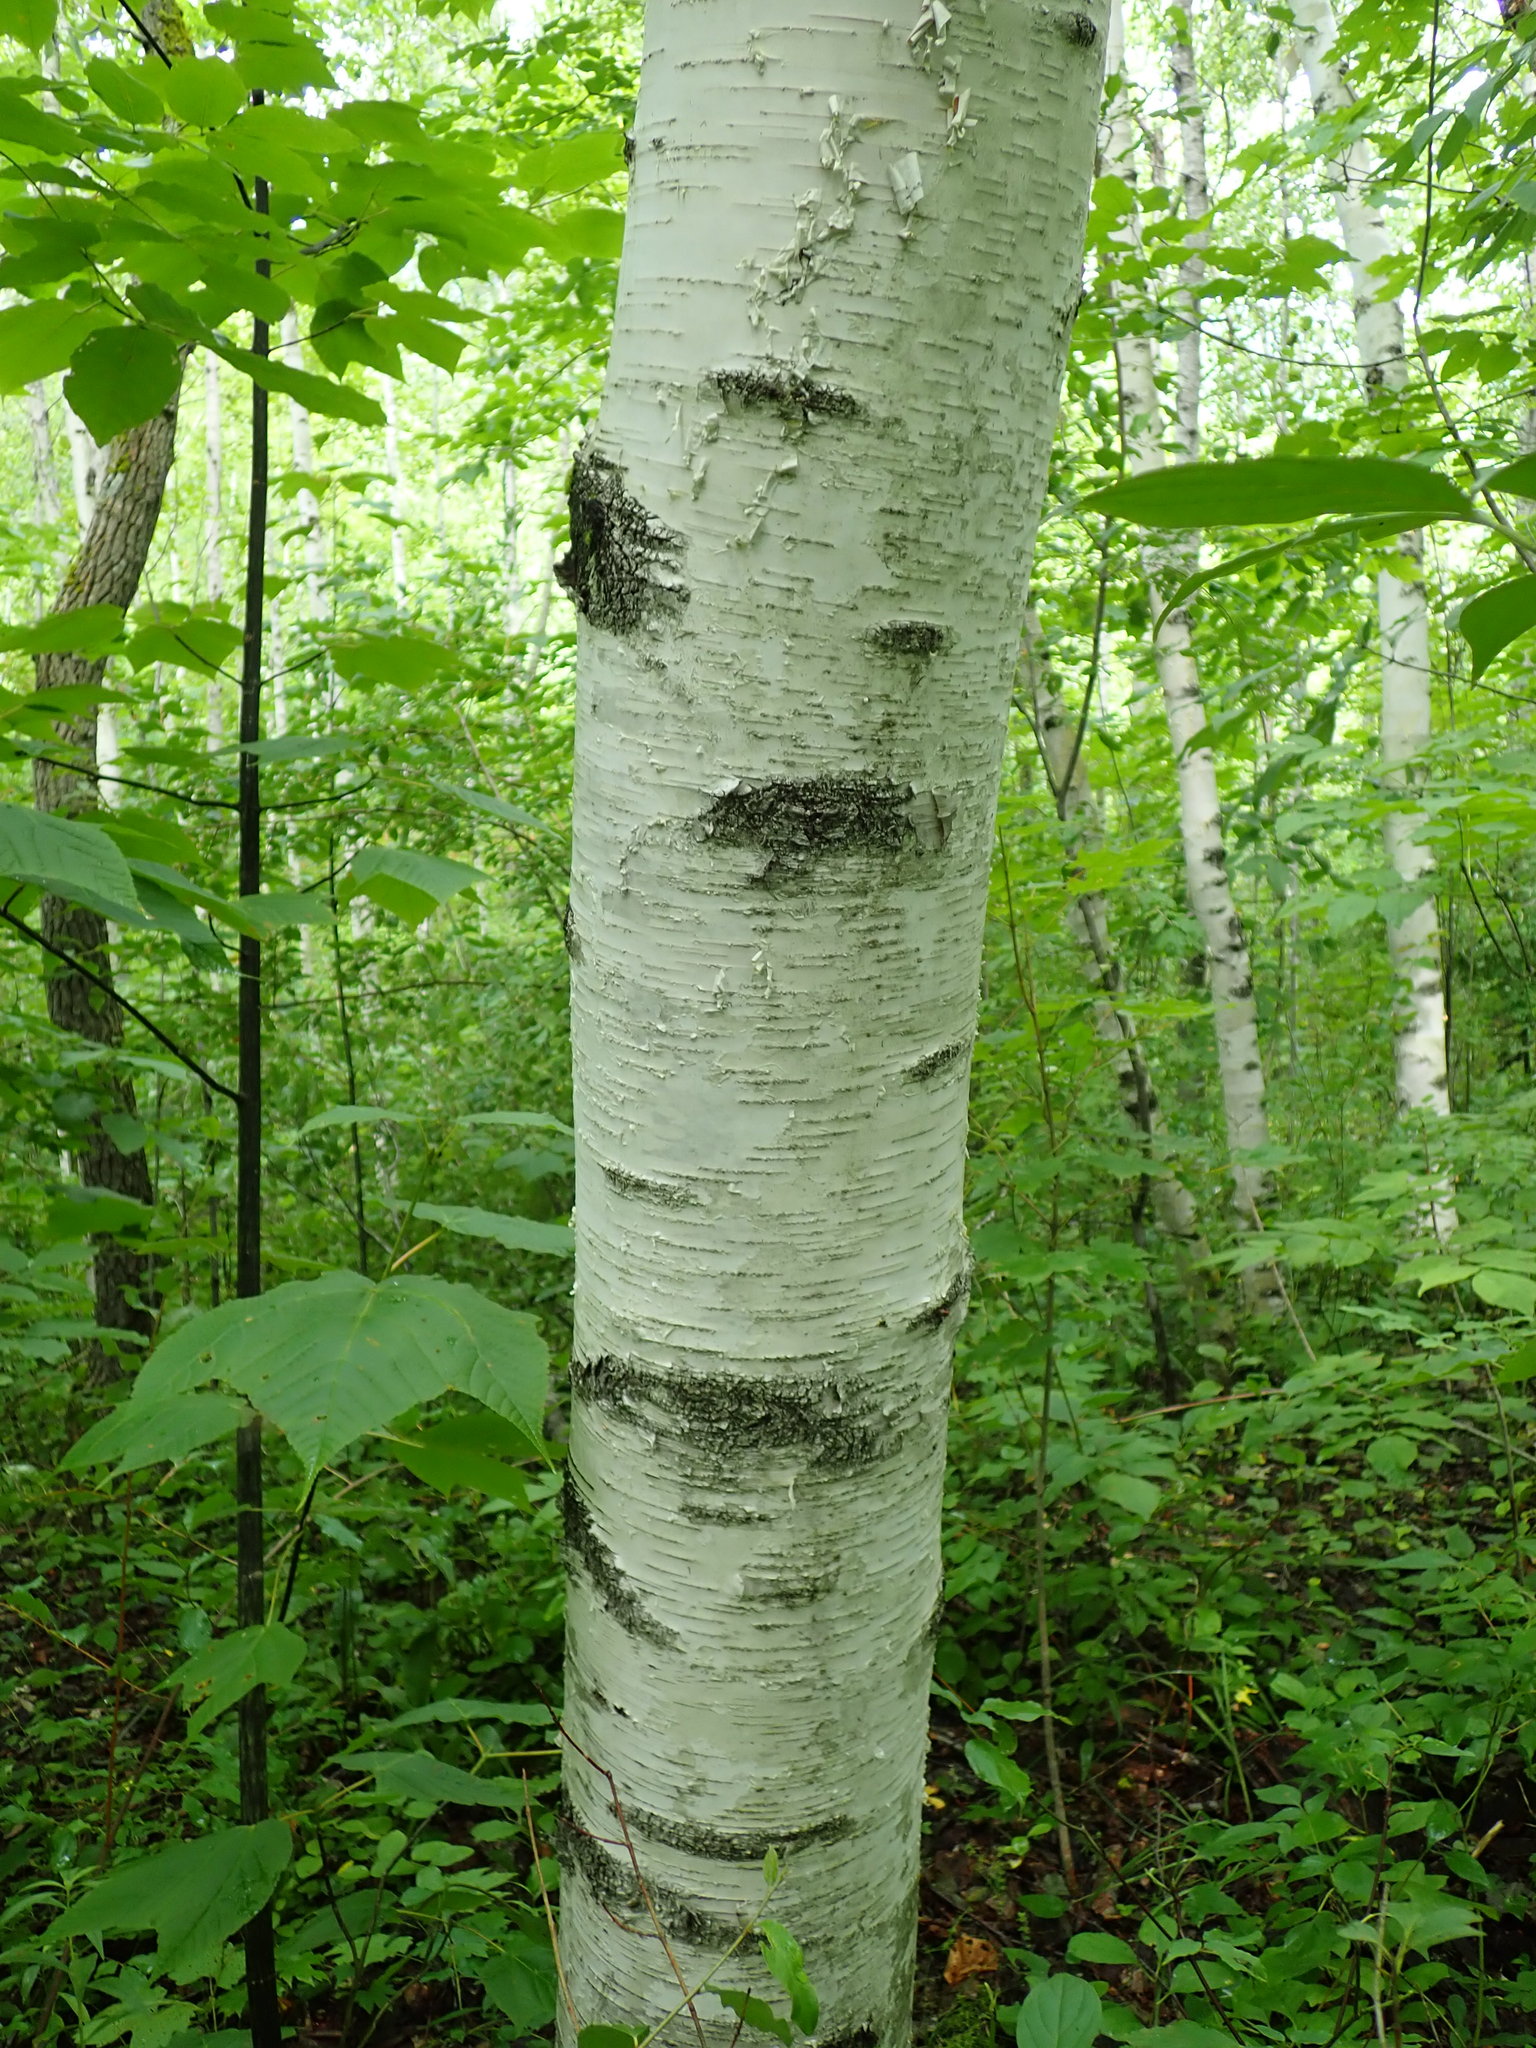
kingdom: Plantae
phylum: Tracheophyta
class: Magnoliopsida
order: Fagales
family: Betulaceae
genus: Betula
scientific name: Betula papyrifera
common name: Paper birch
